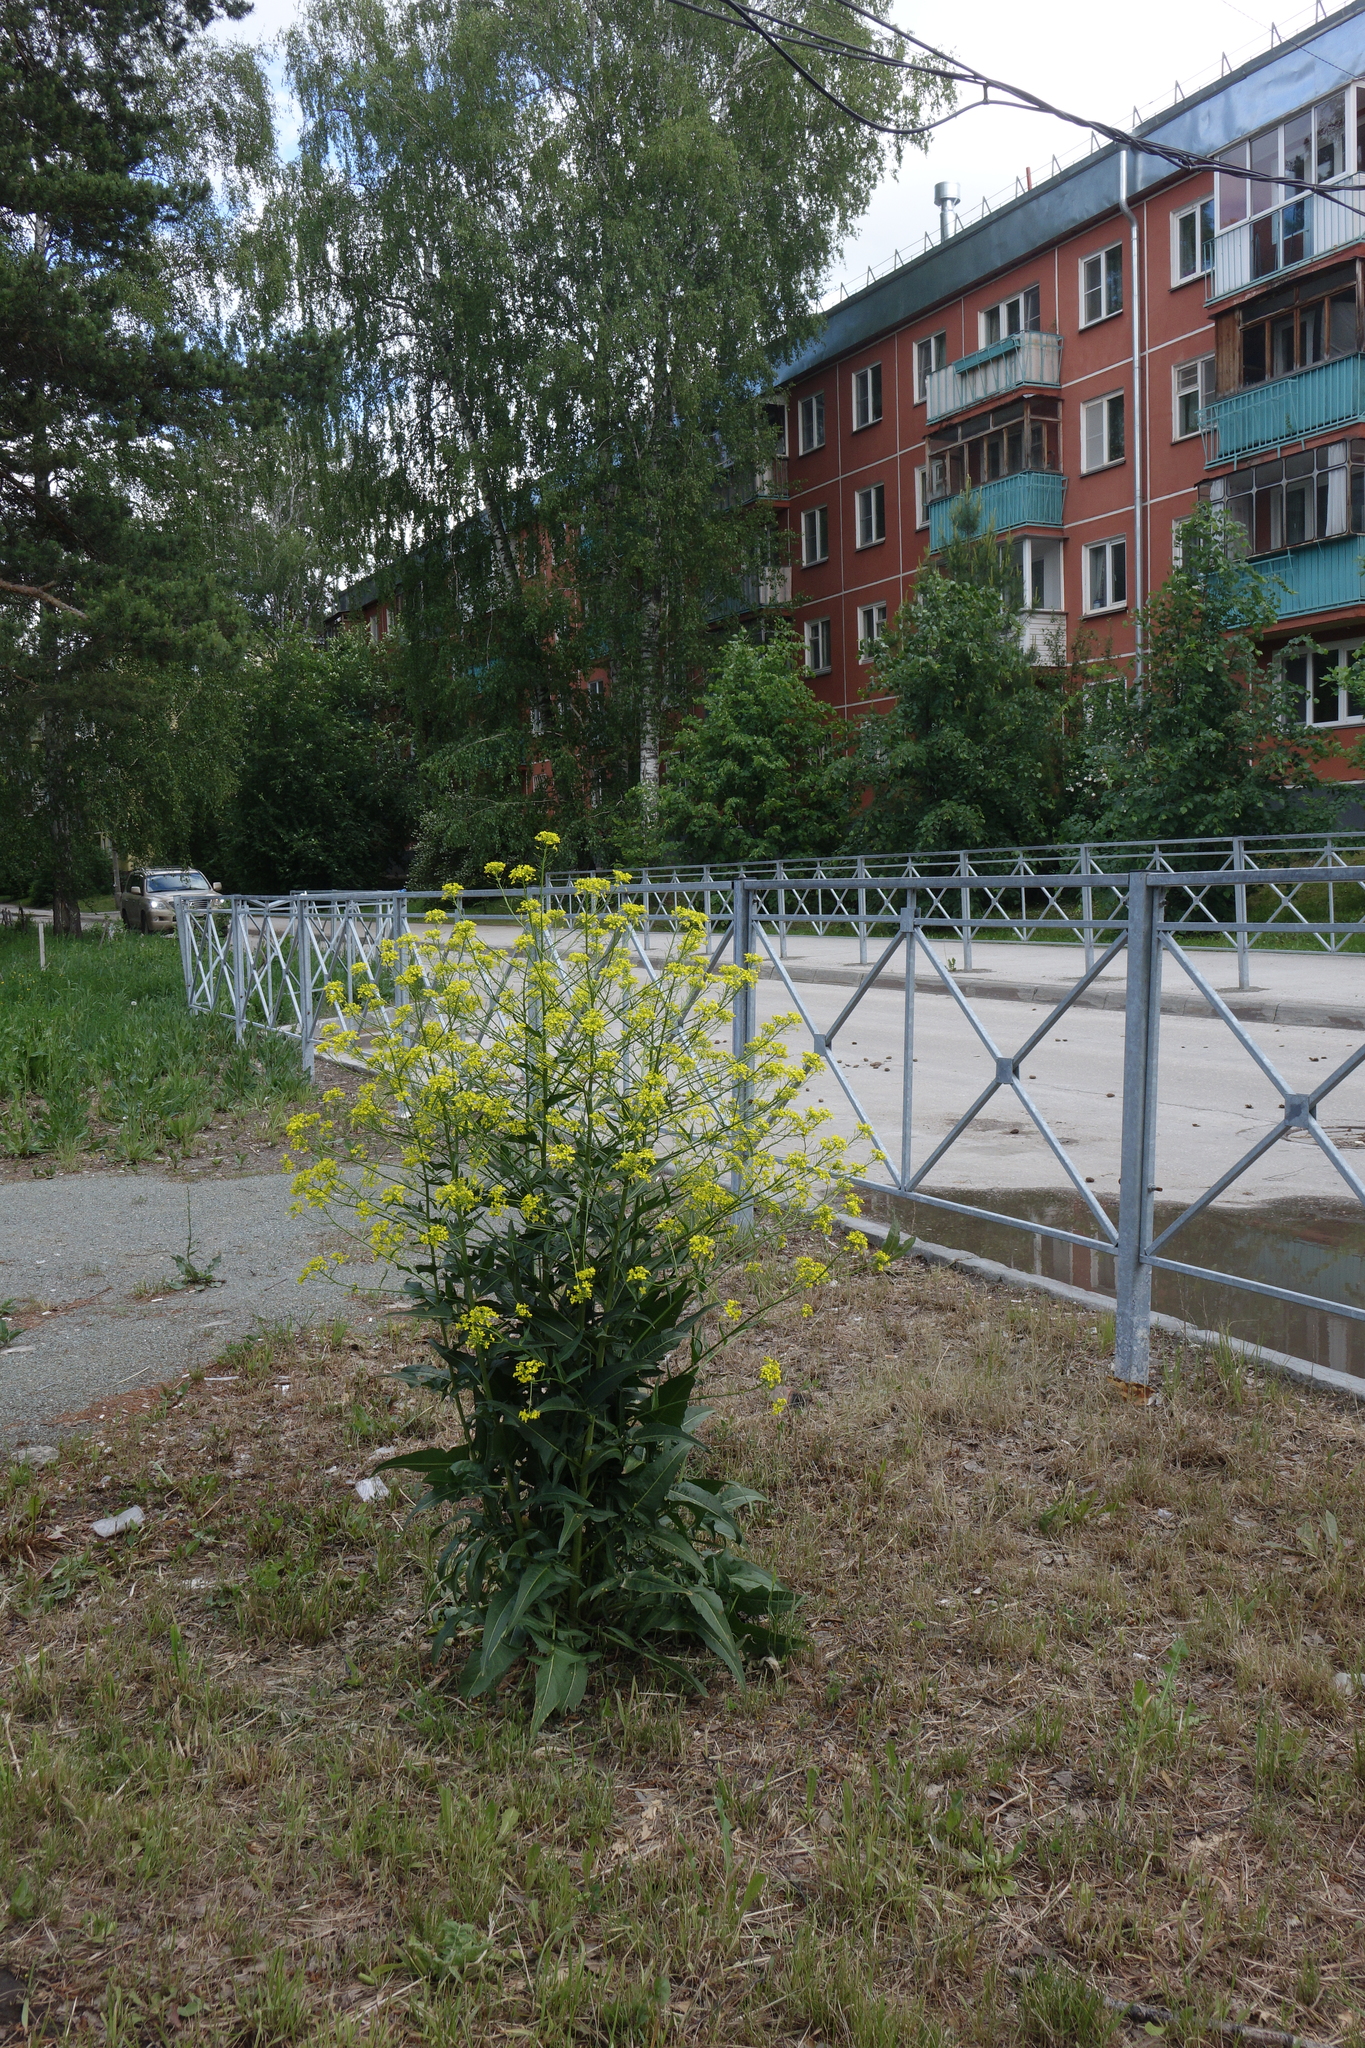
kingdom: Plantae
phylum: Tracheophyta
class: Magnoliopsida
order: Brassicales
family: Brassicaceae
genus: Bunias
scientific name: Bunias orientalis
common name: Warty-cabbage
